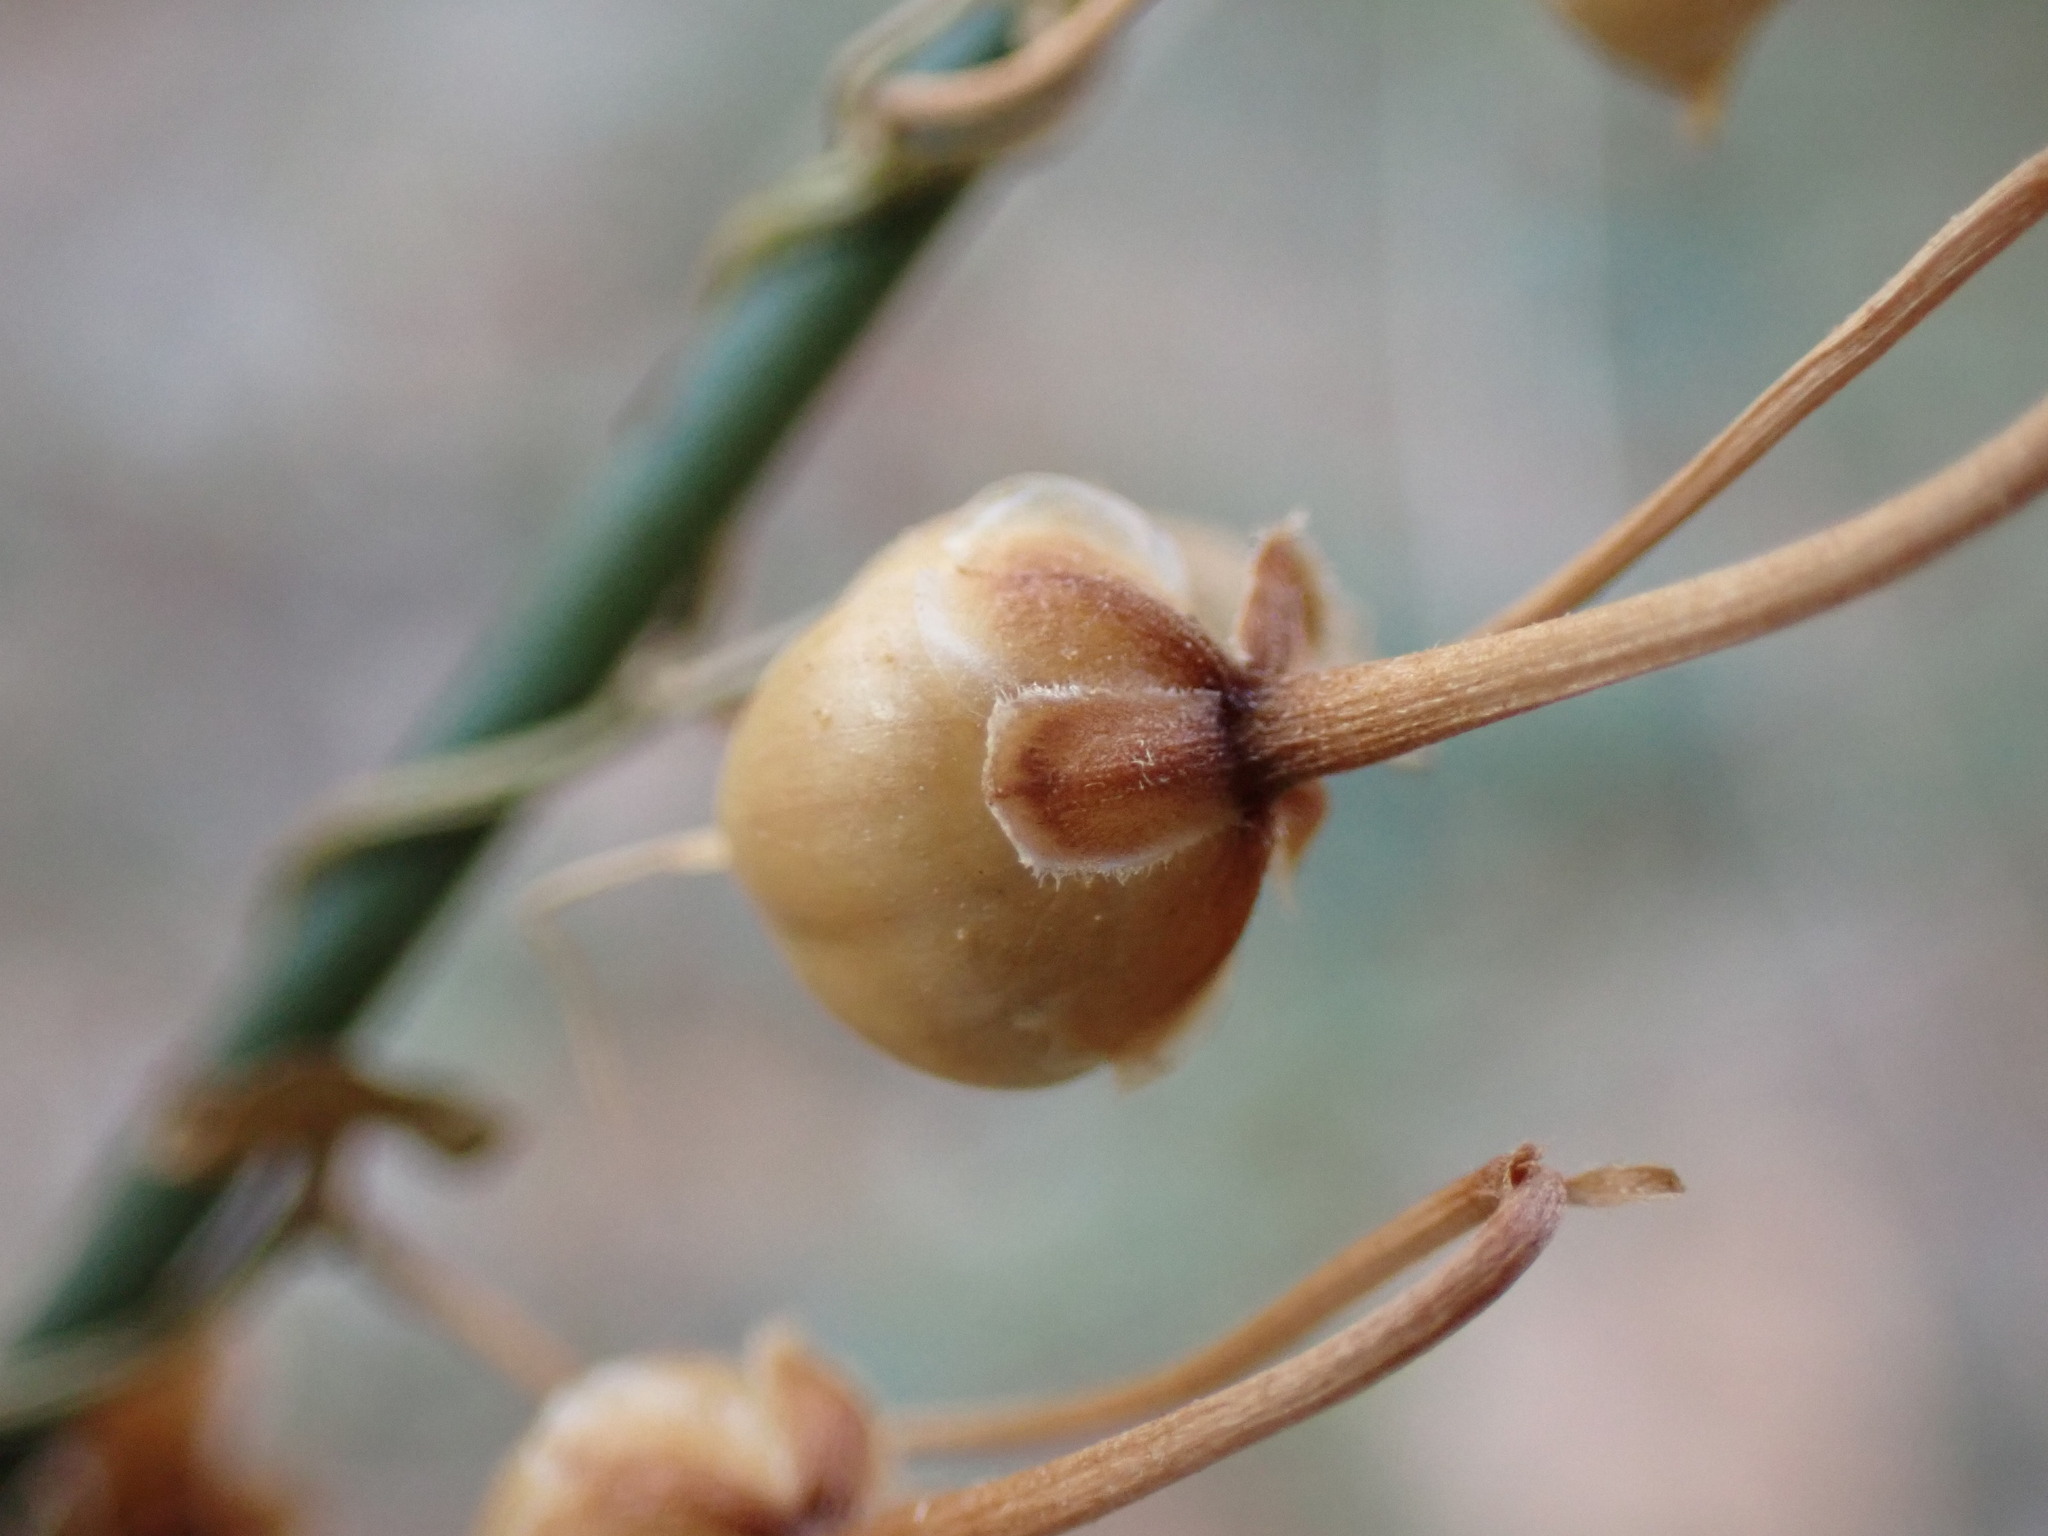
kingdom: Plantae
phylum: Tracheophyta
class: Magnoliopsida
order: Solanales
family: Convolvulaceae
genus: Convolvulus
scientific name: Convolvulus arvensis
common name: Field bindweed
